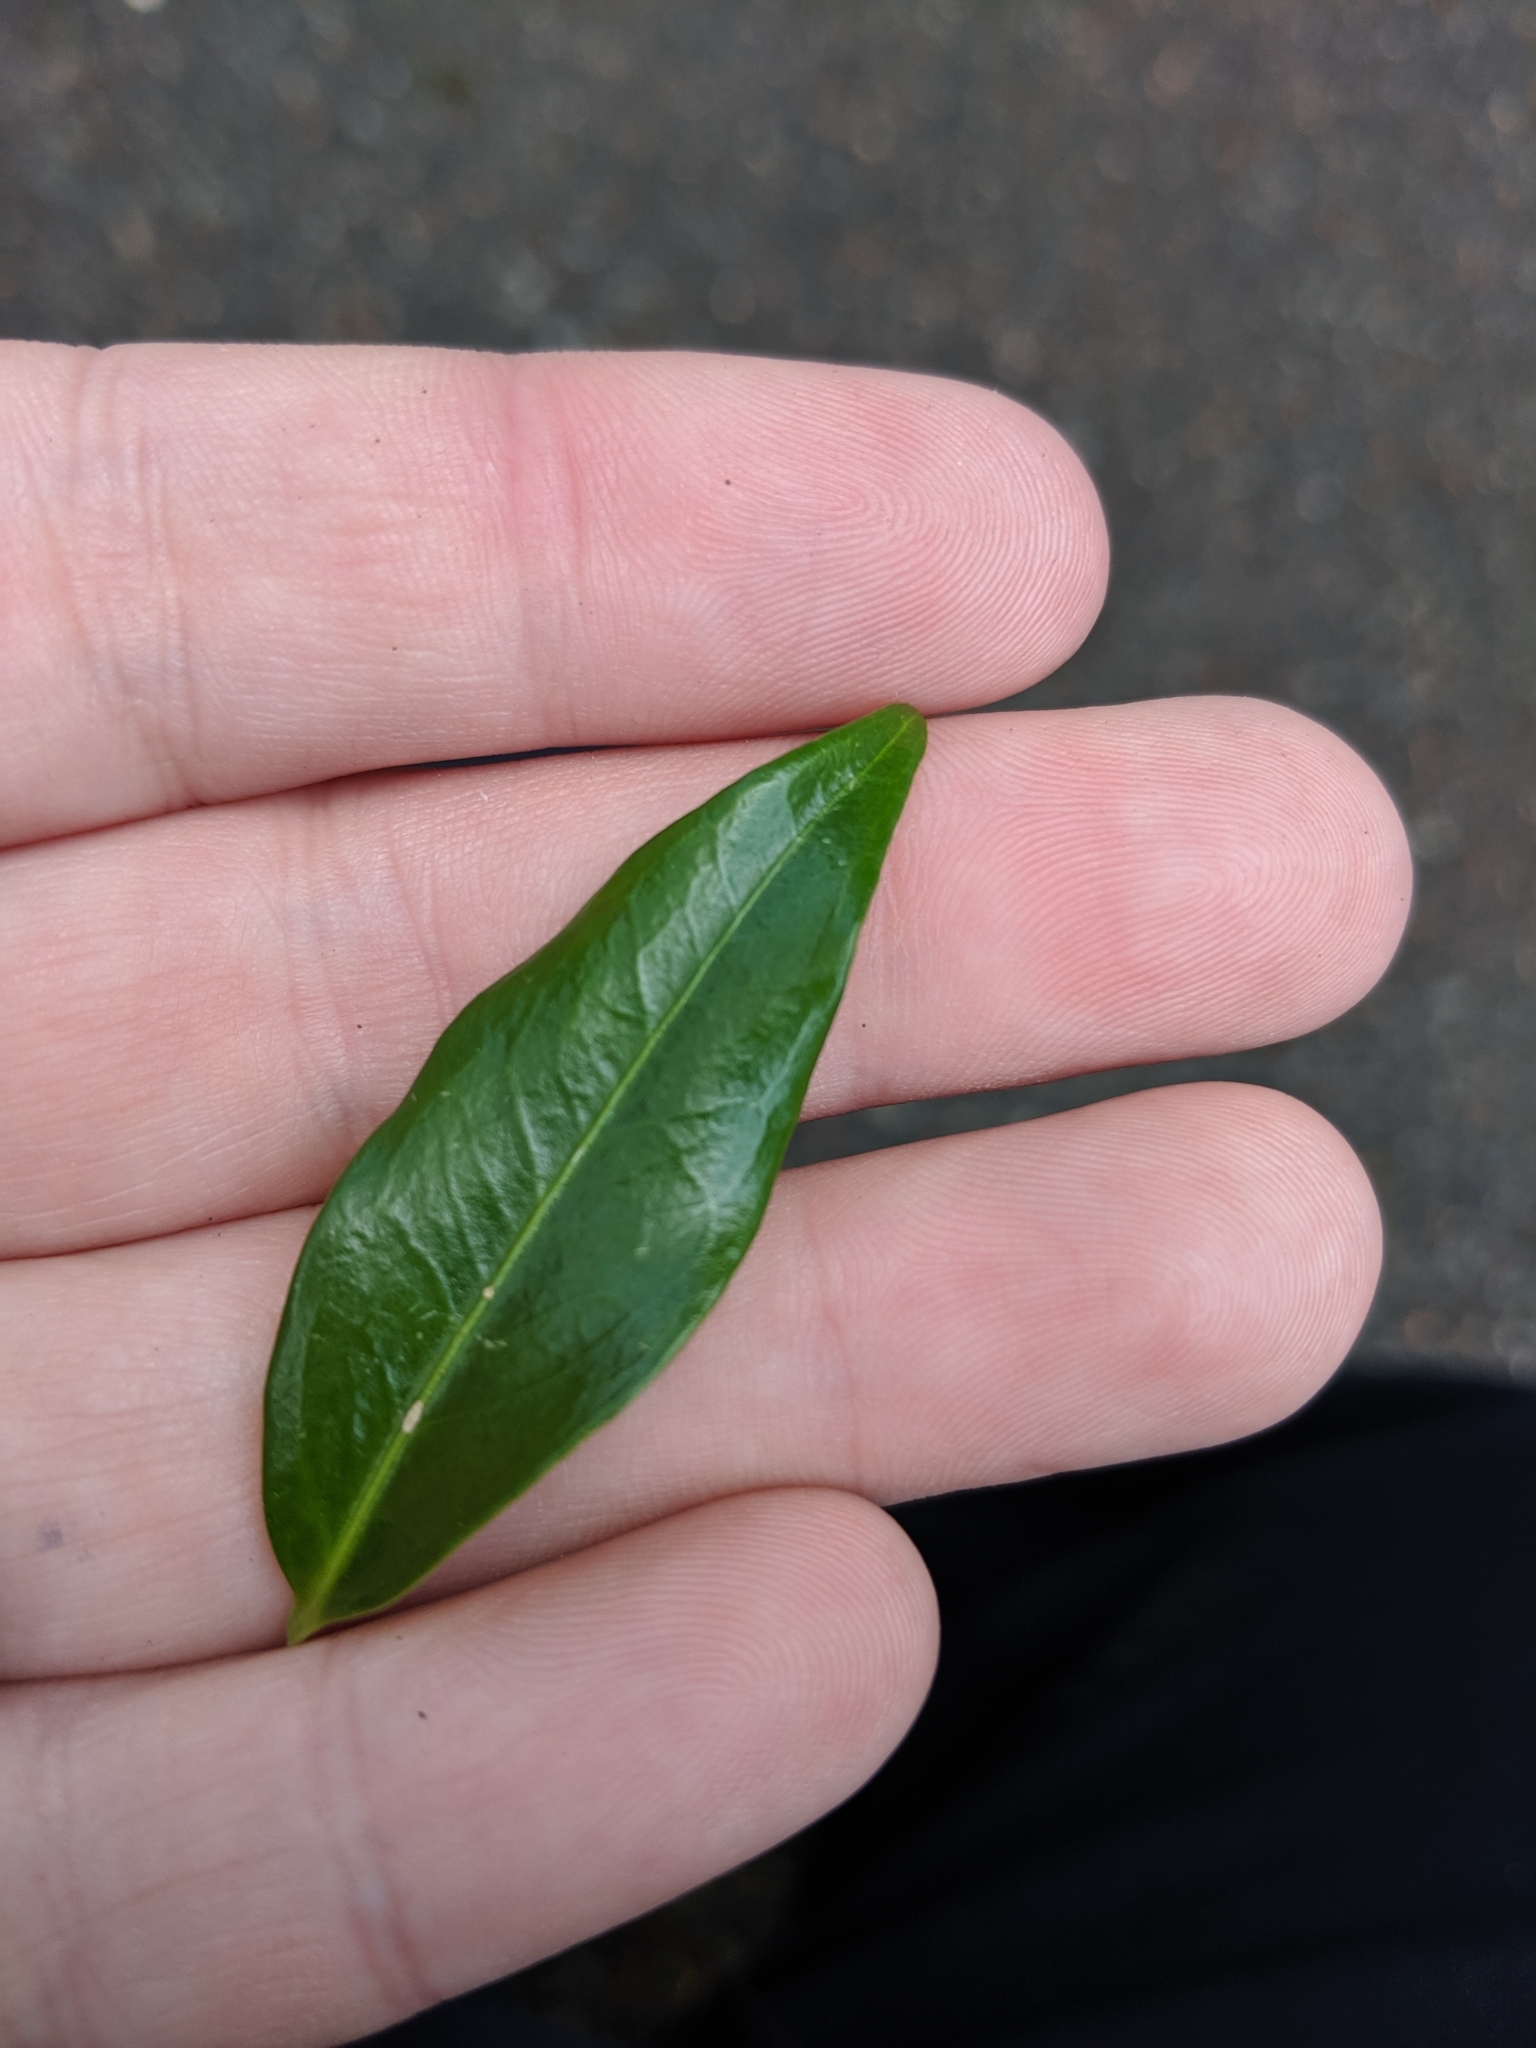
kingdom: Plantae
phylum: Tracheophyta
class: Magnoliopsida
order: Buxales
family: Buxaceae
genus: Sarcococca
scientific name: Sarcococca confusa
